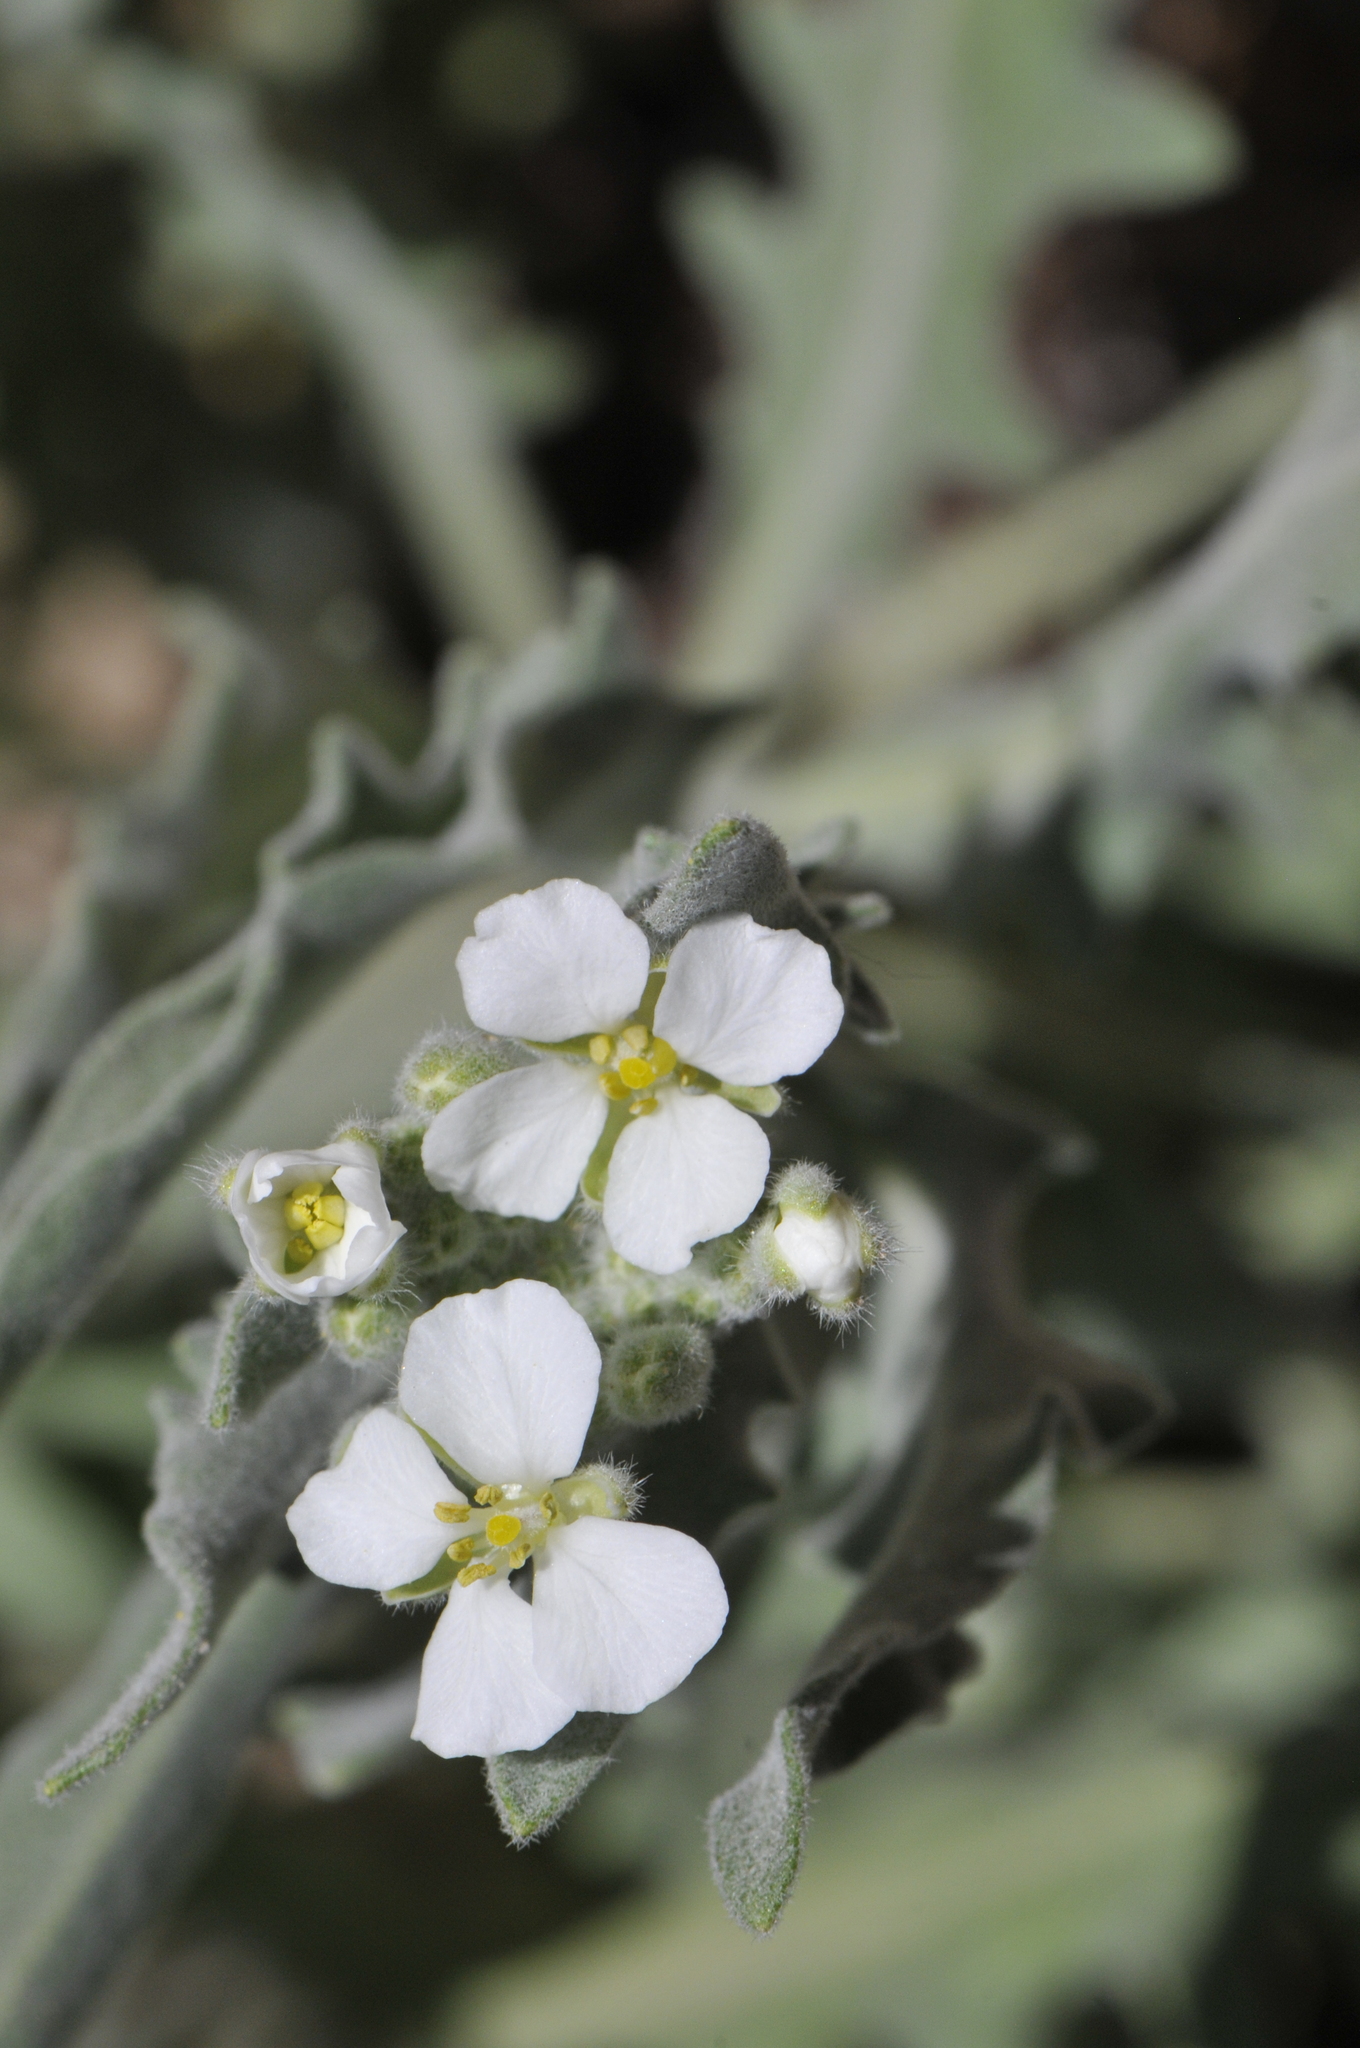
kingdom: Plantae
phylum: Tracheophyta
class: Magnoliopsida
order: Brassicales
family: Brassicaceae
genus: Dimorphocarpa
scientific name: Dimorphocarpa wislizenii
